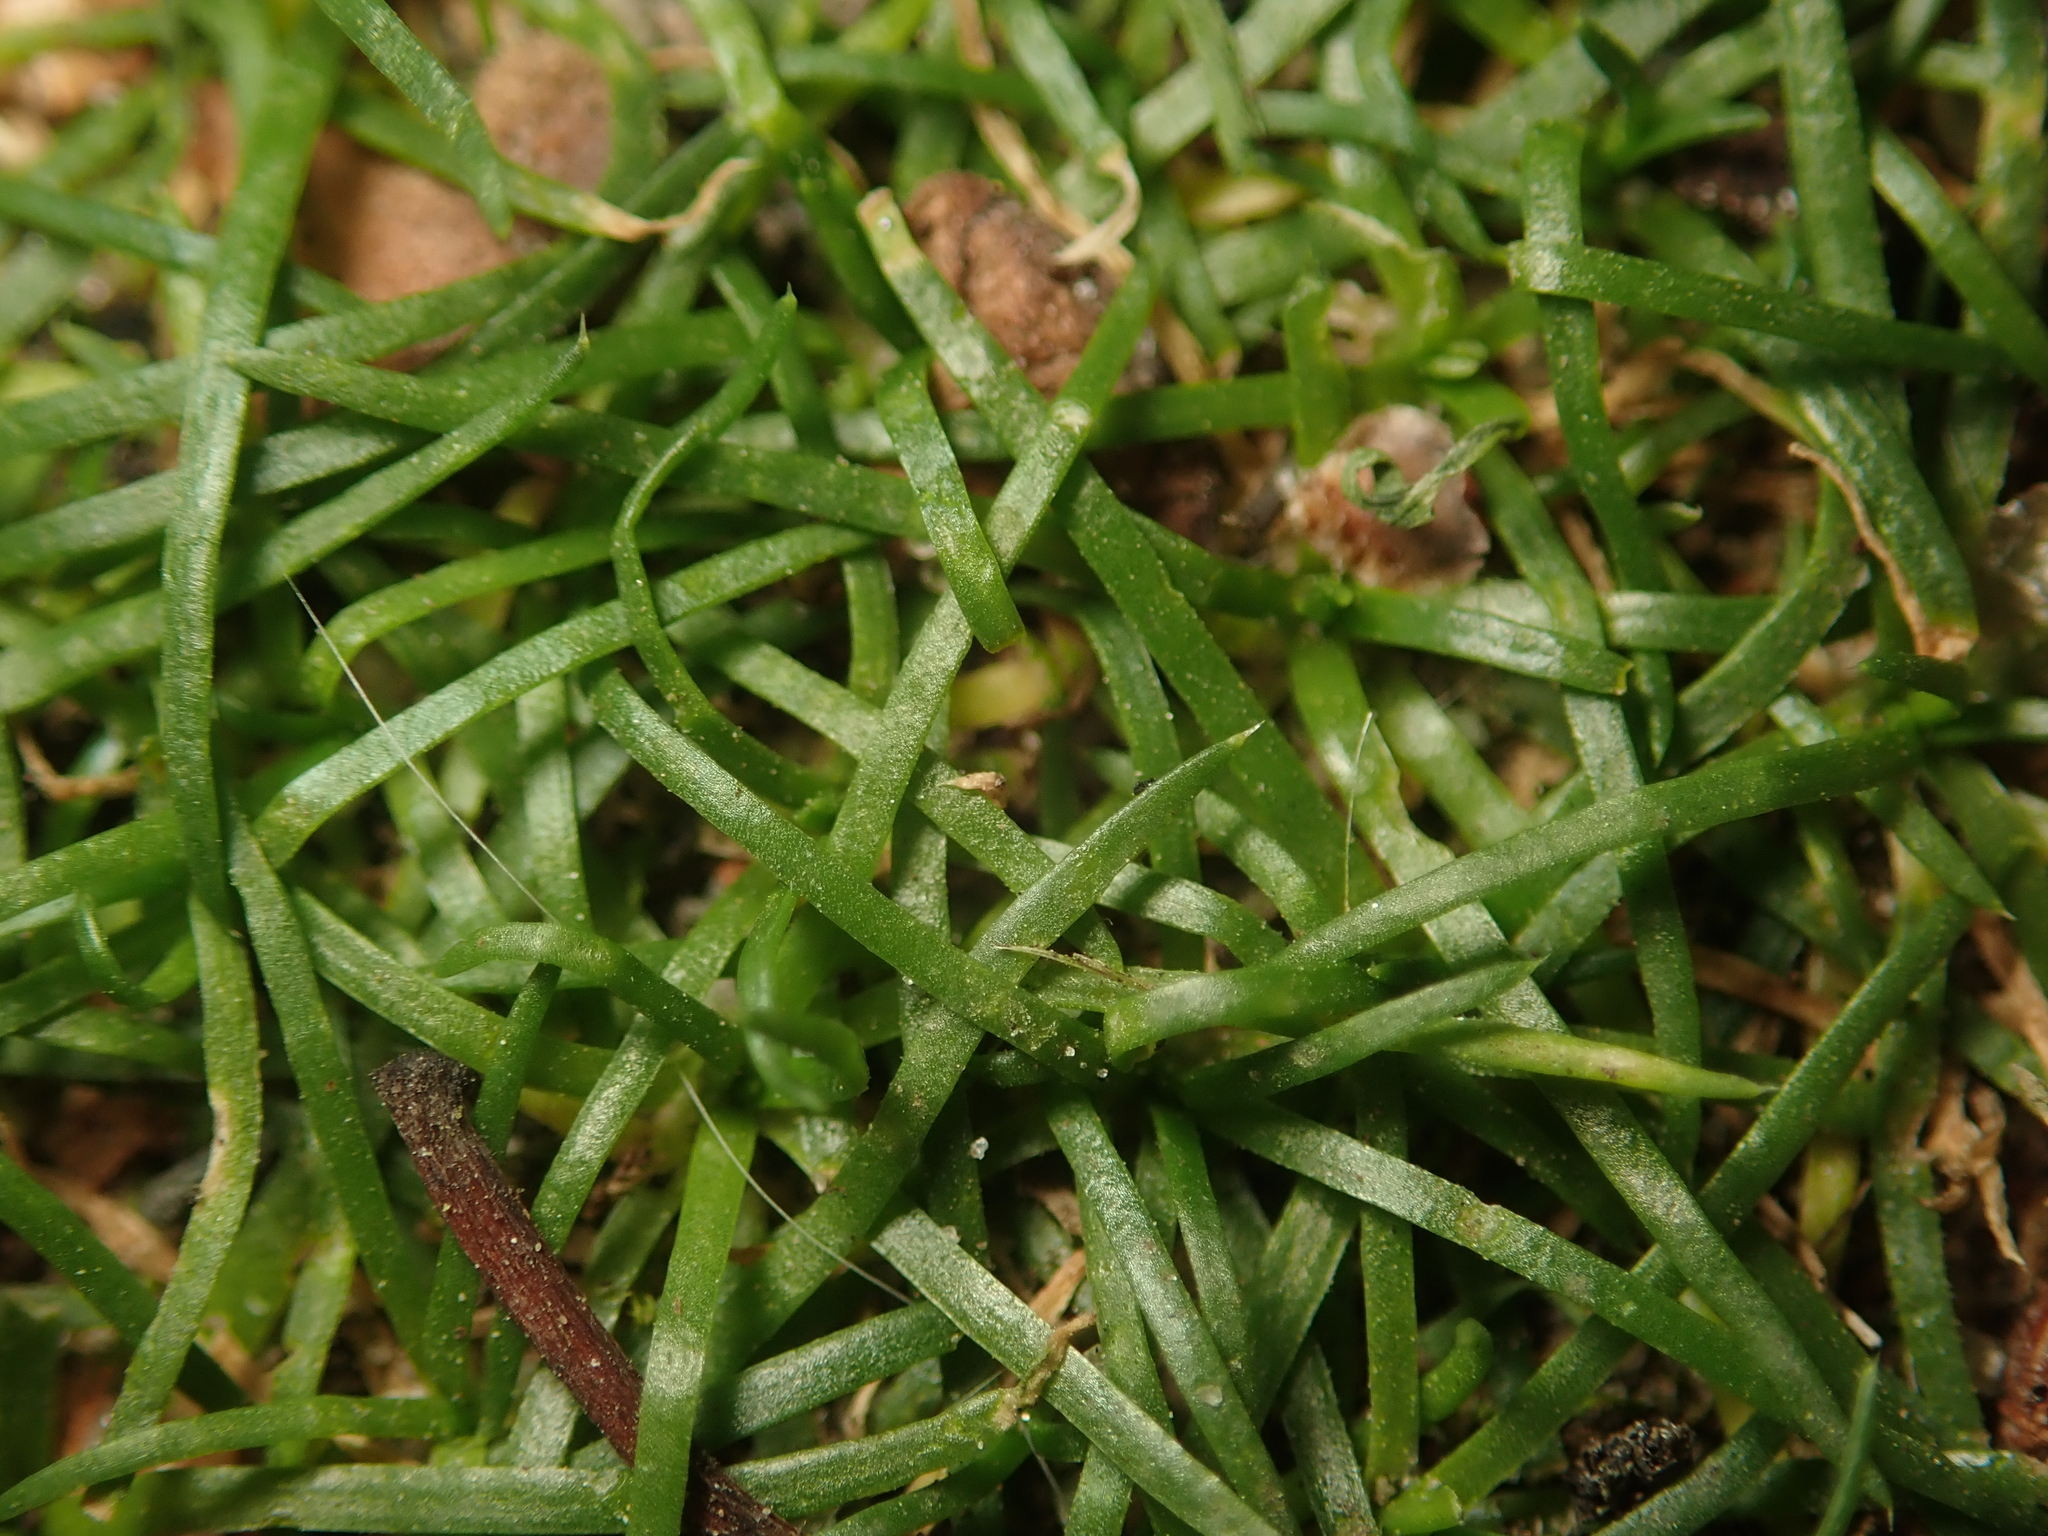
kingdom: Plantae
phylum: Tracheophyta
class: Magnoliopsida
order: Caryophyllales
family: Caryophyllaceae
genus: Sagina
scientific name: Sagina procumbens
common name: Procumbent pearlwort
